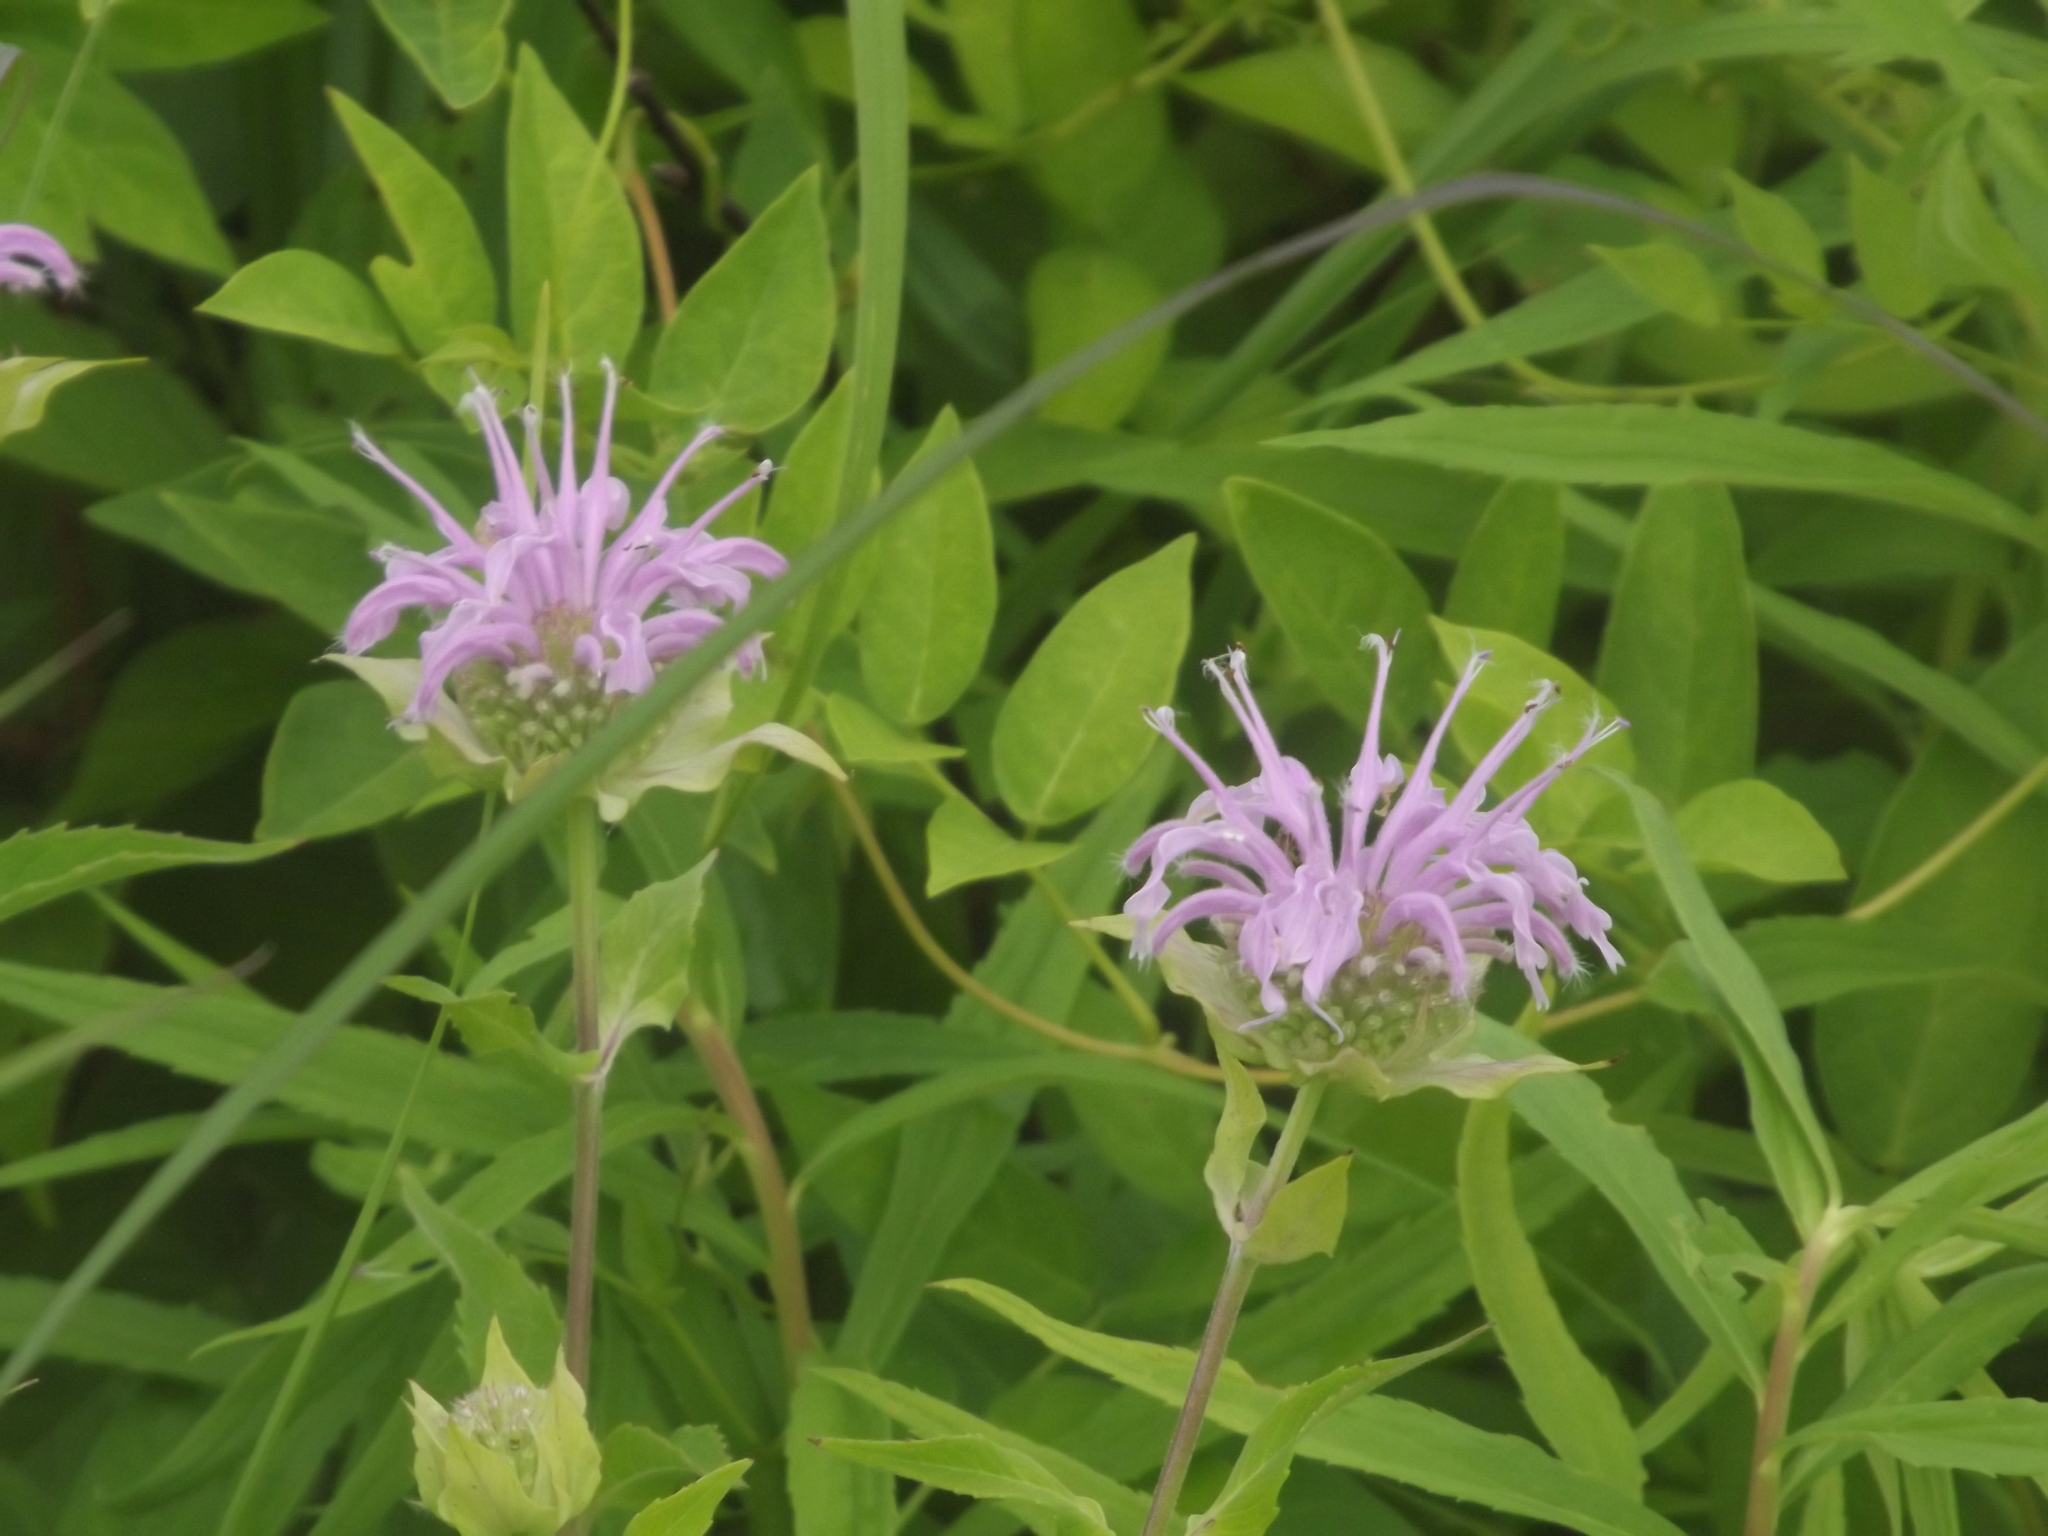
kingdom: Plantae
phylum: Tracheophyta
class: Magnoliopsida
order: Lamiales
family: Lamiaceae
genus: Monarda
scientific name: Monarda fistulosa
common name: Purple beebalm
